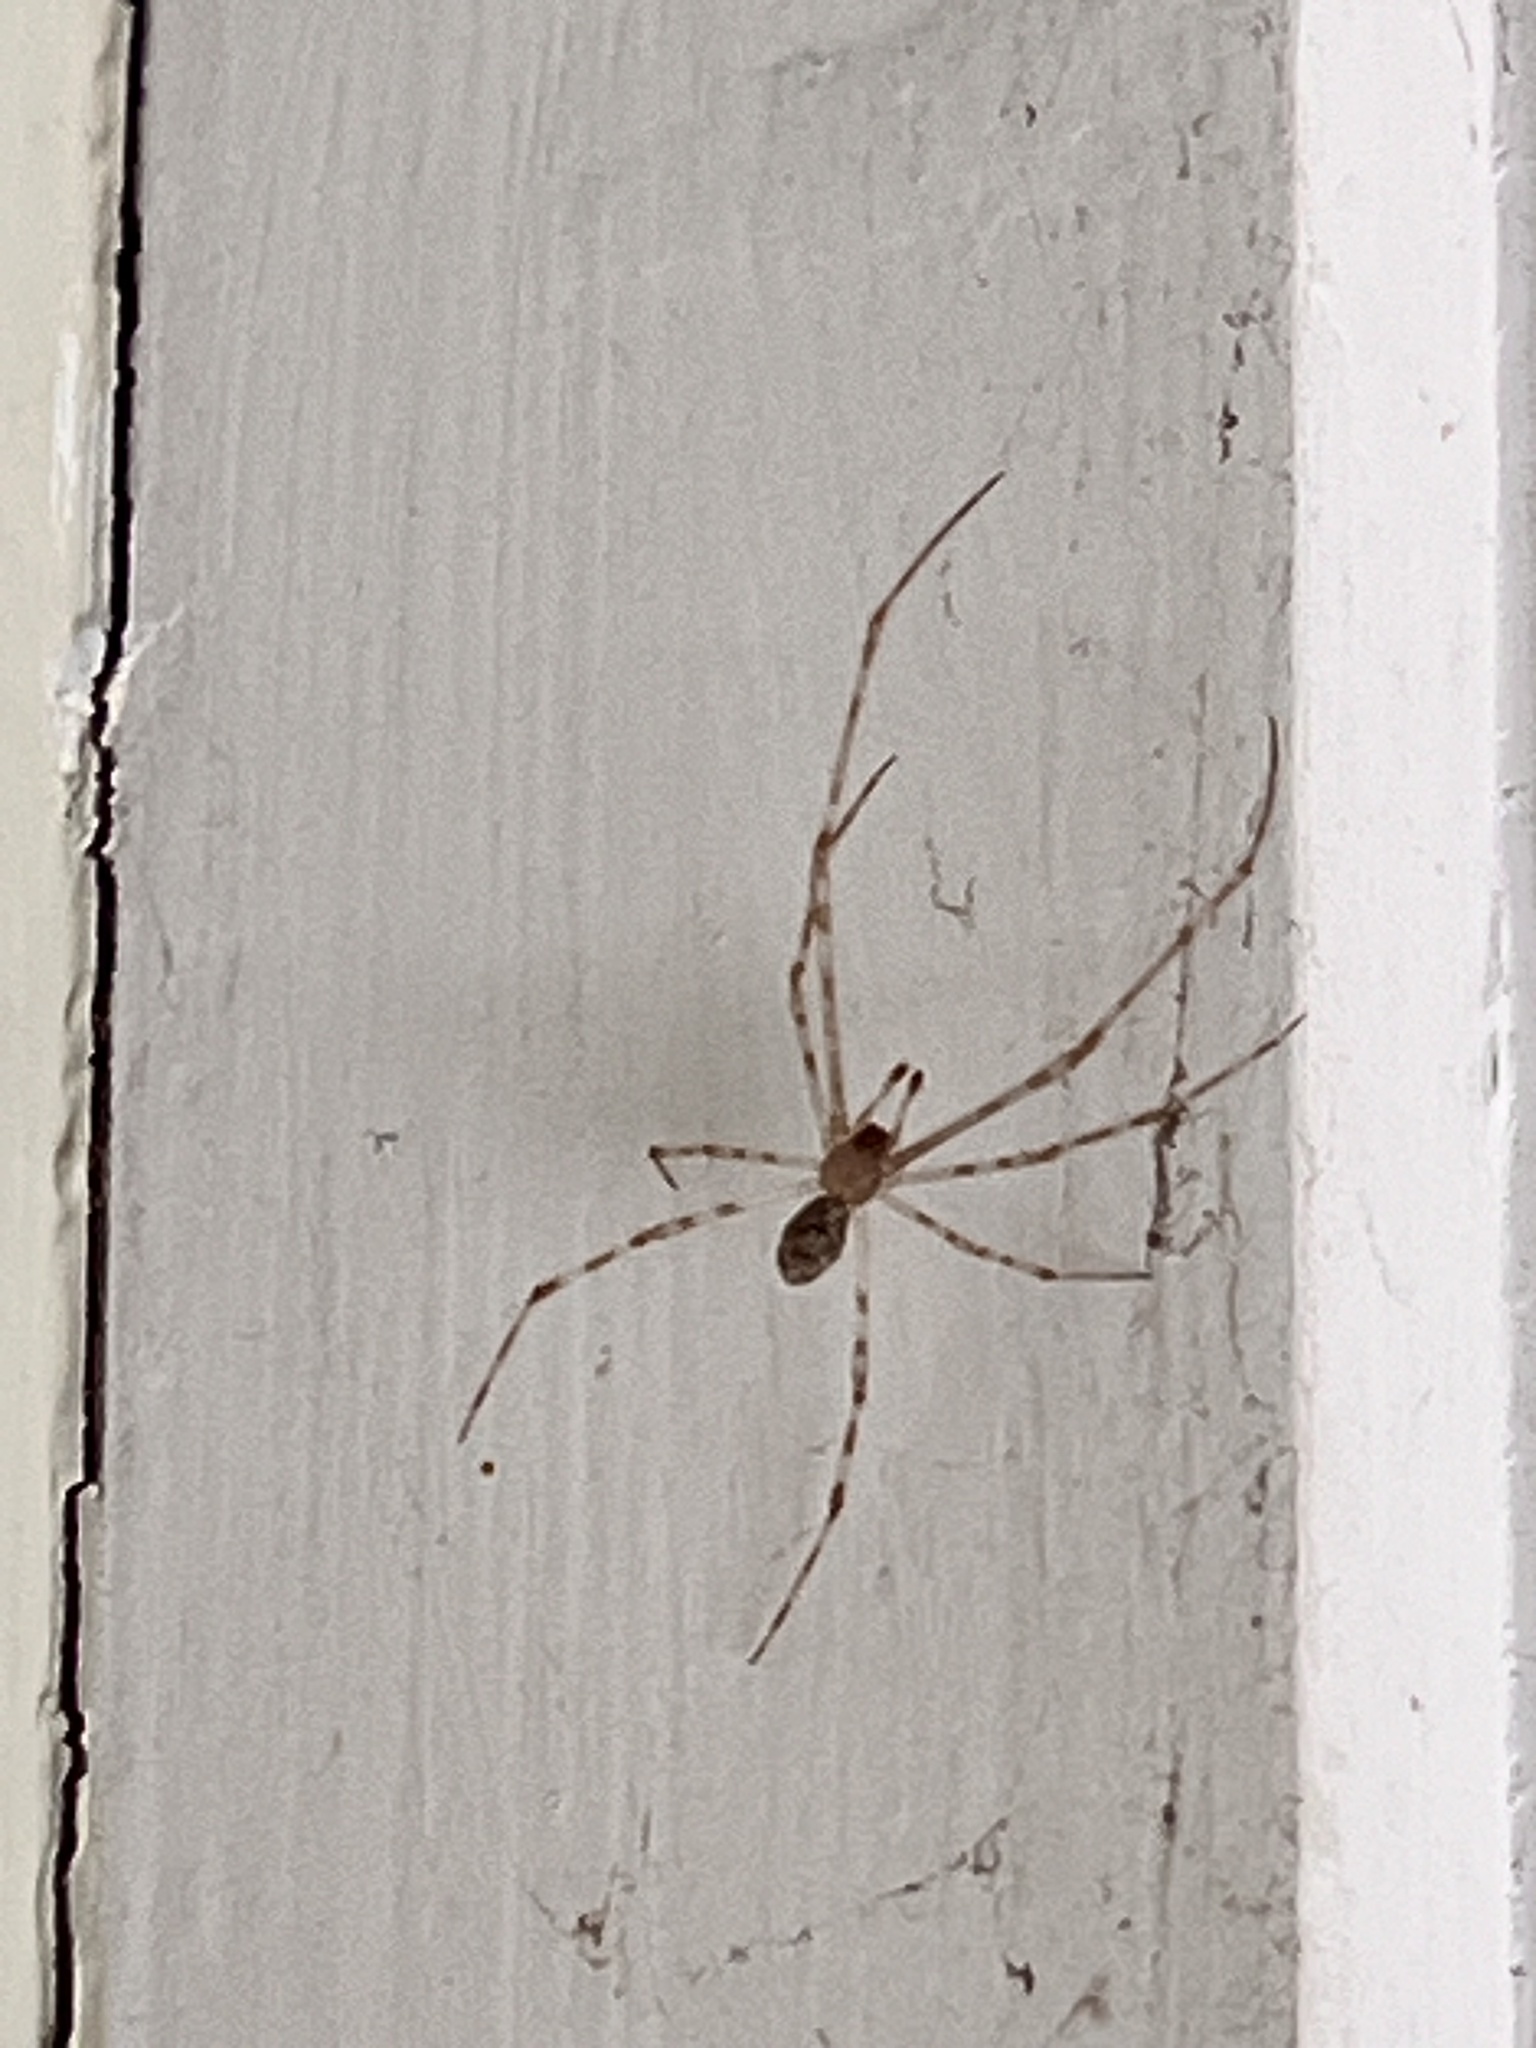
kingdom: Animalia
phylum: Arthropoda
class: Arachnida
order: Araneae
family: Theridiidae
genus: Cryptachaea
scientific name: Cryptachaea gigantipes
